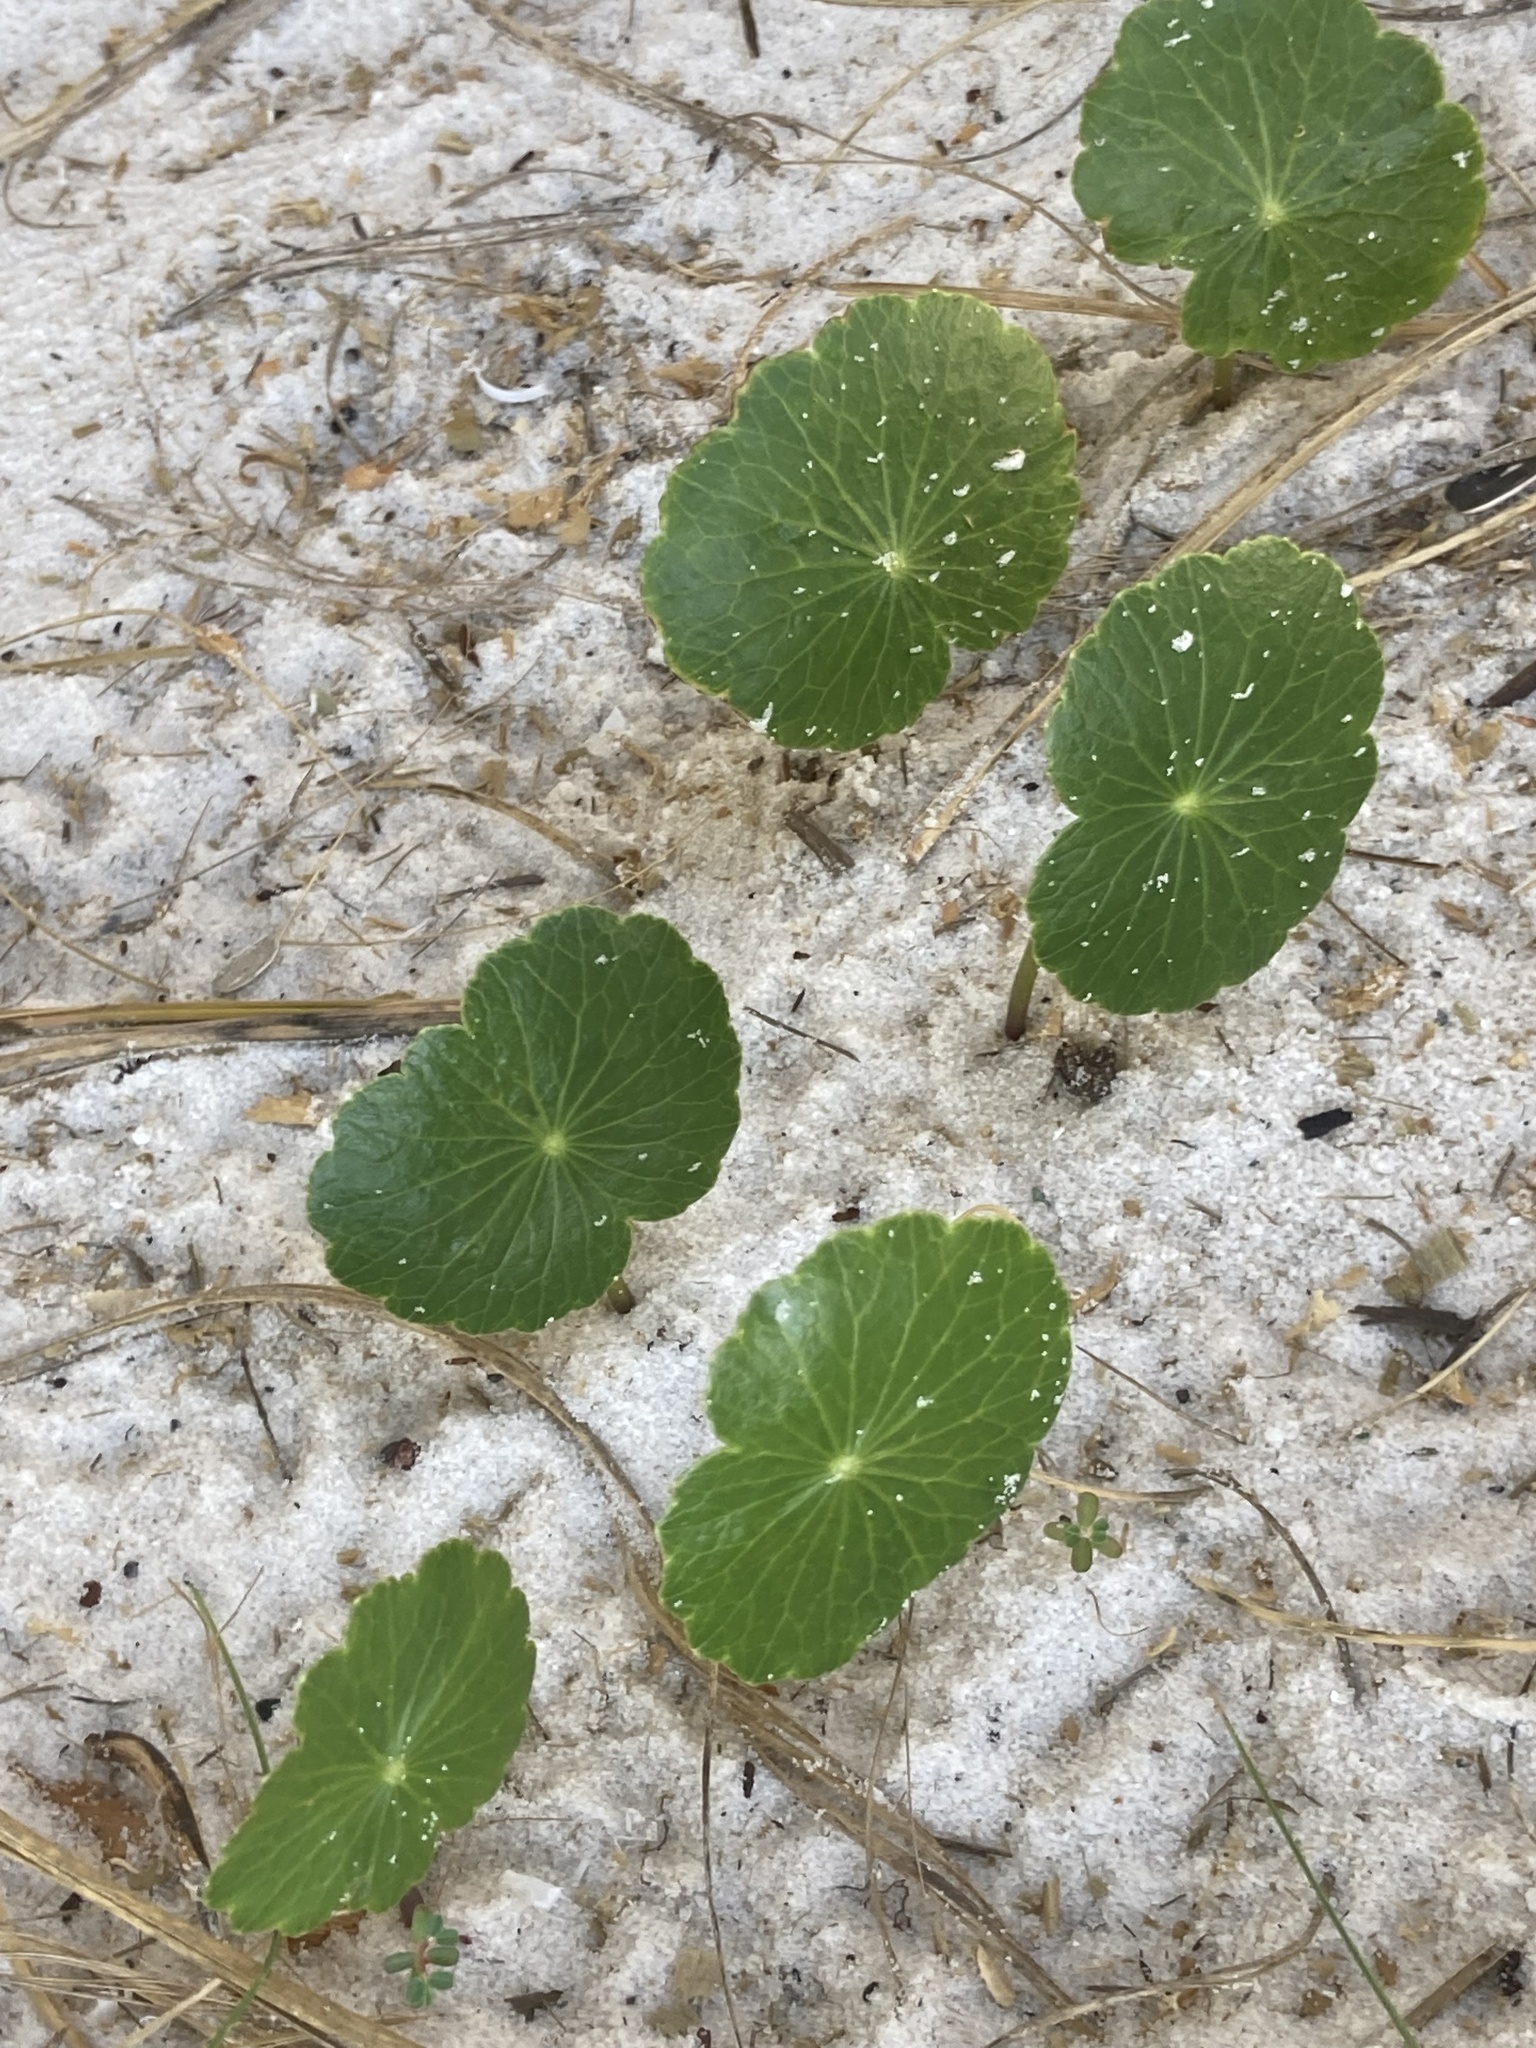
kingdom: Plantae
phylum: Tracheophyta
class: Magnoliopsida
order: Apiales
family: Araliaceae
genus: Hydrocotyle
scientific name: Hydrocotyle bonariensis
